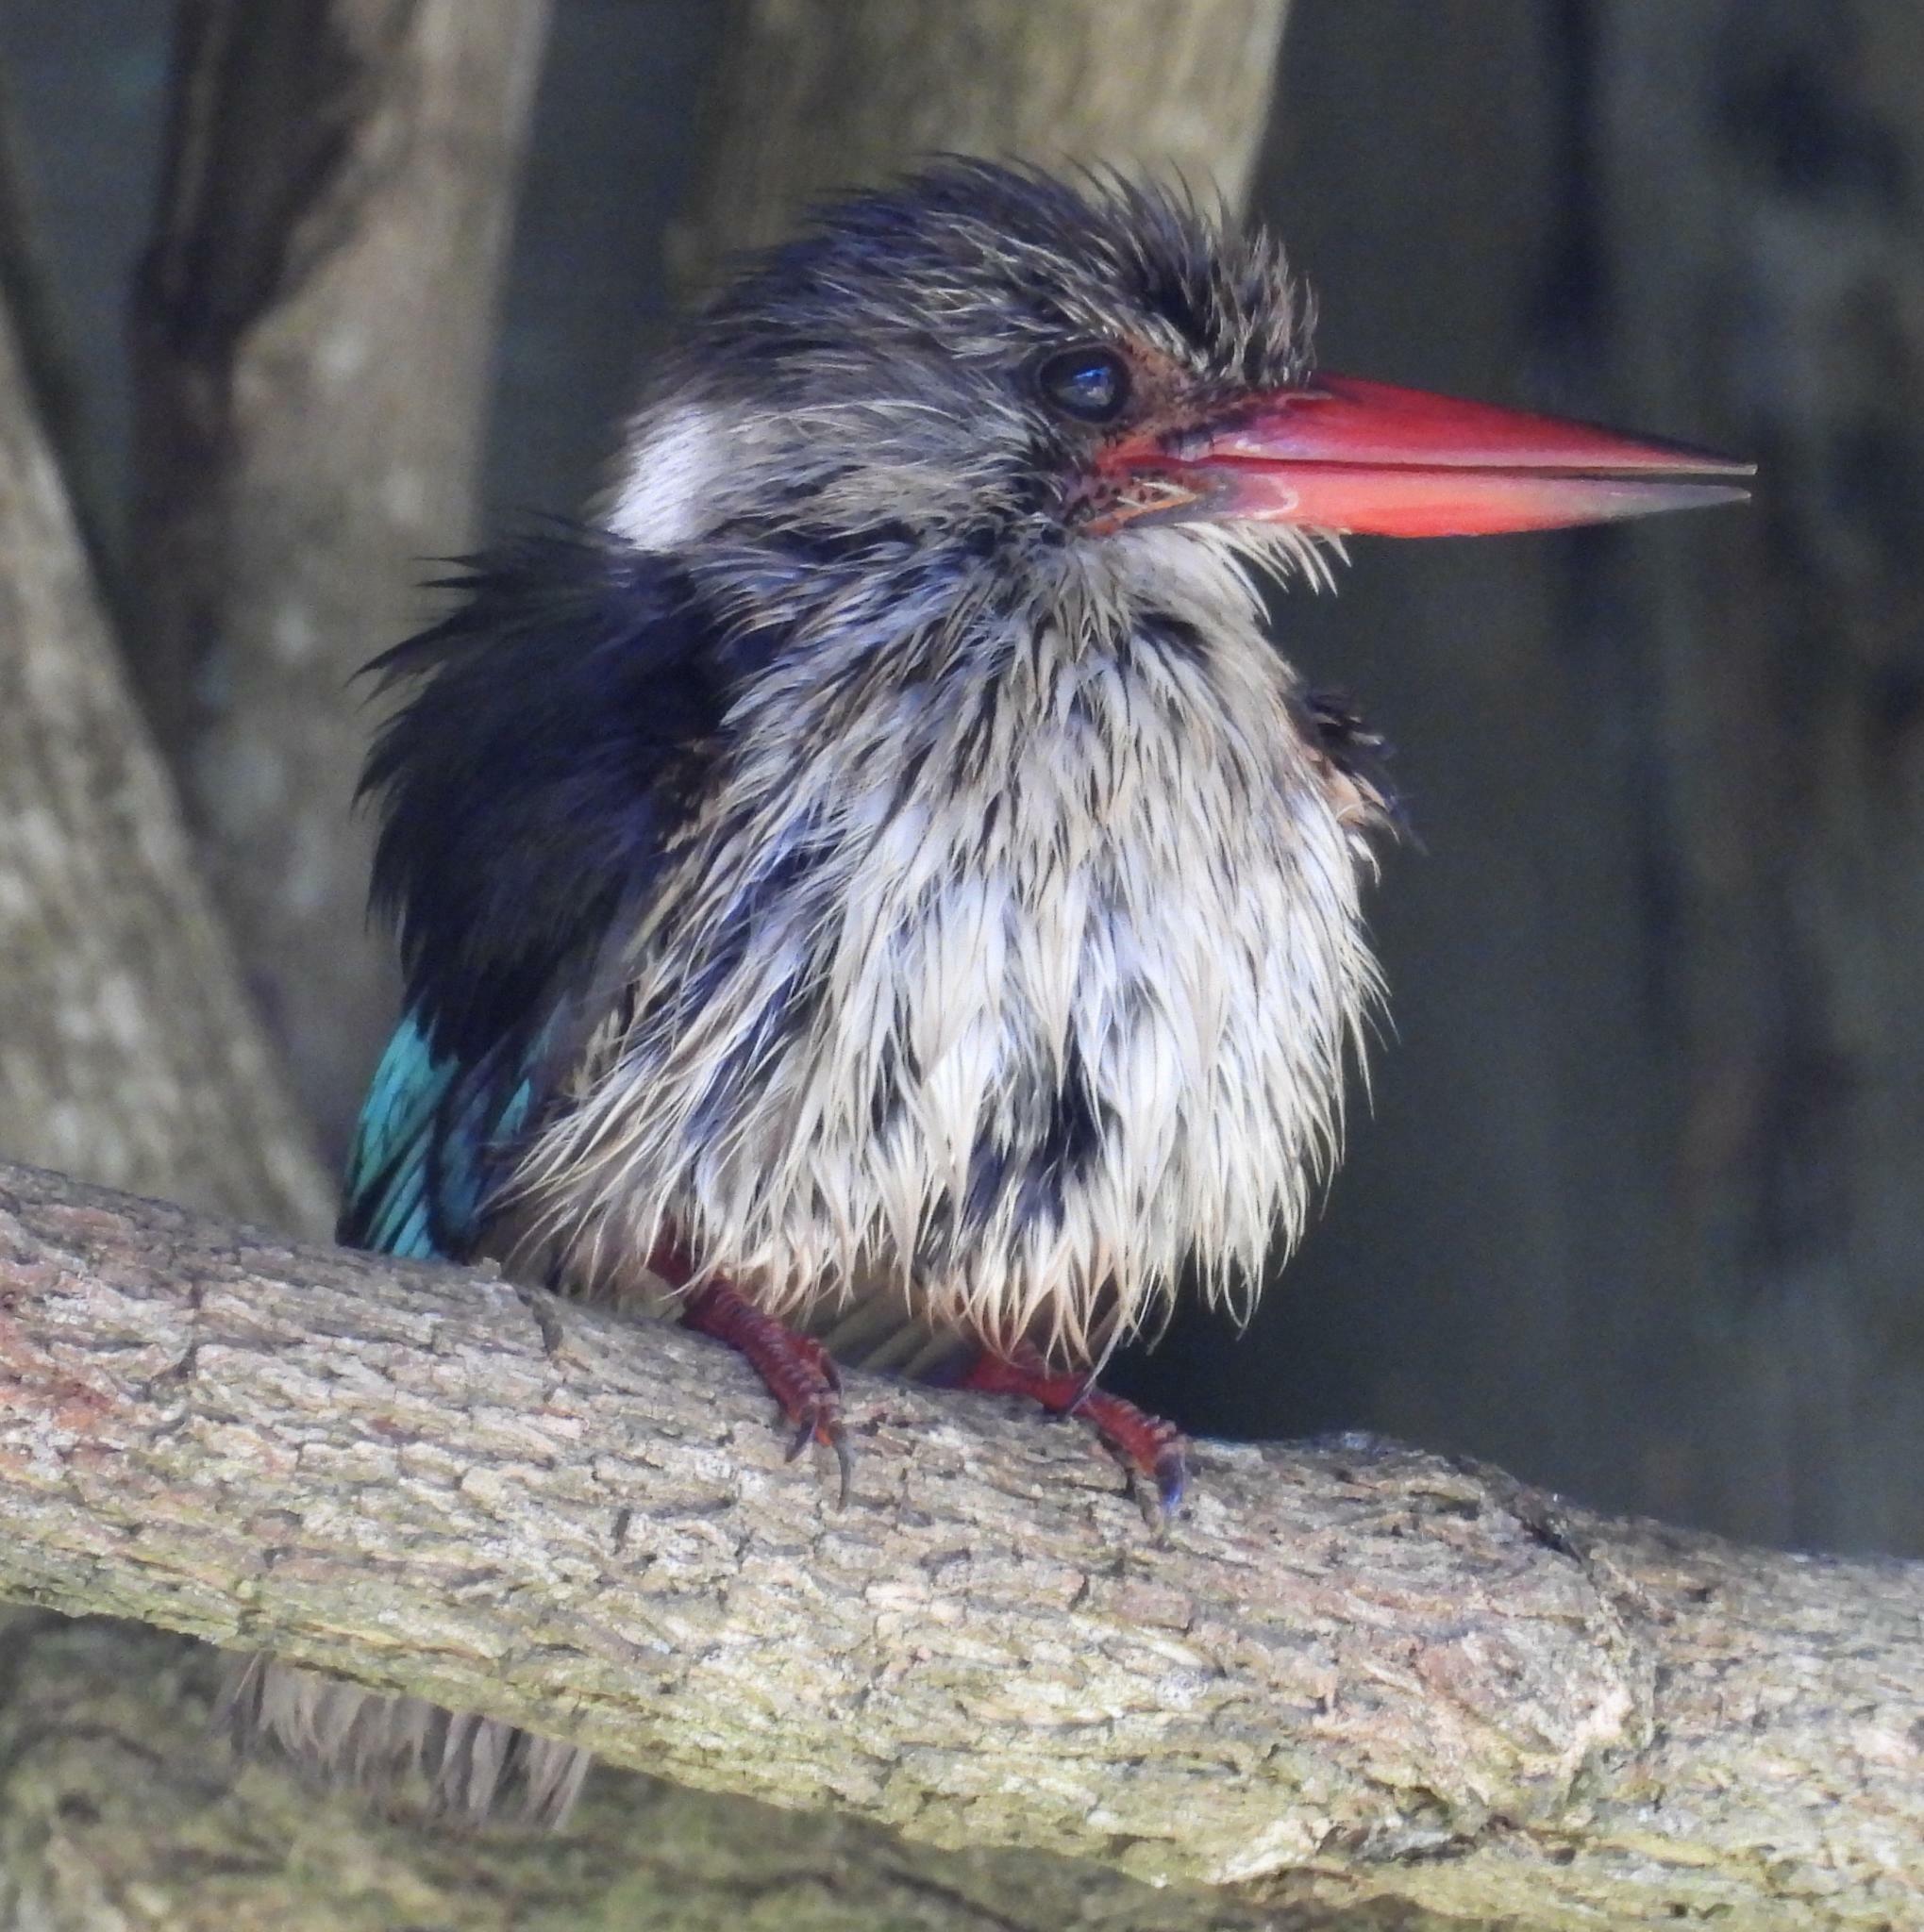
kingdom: Animalia
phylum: Chordata
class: Aves
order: Coraciiformes
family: Alcedinidae
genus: Halcyon
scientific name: Halcyon albiventris
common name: Brown-hooded kingfisher
